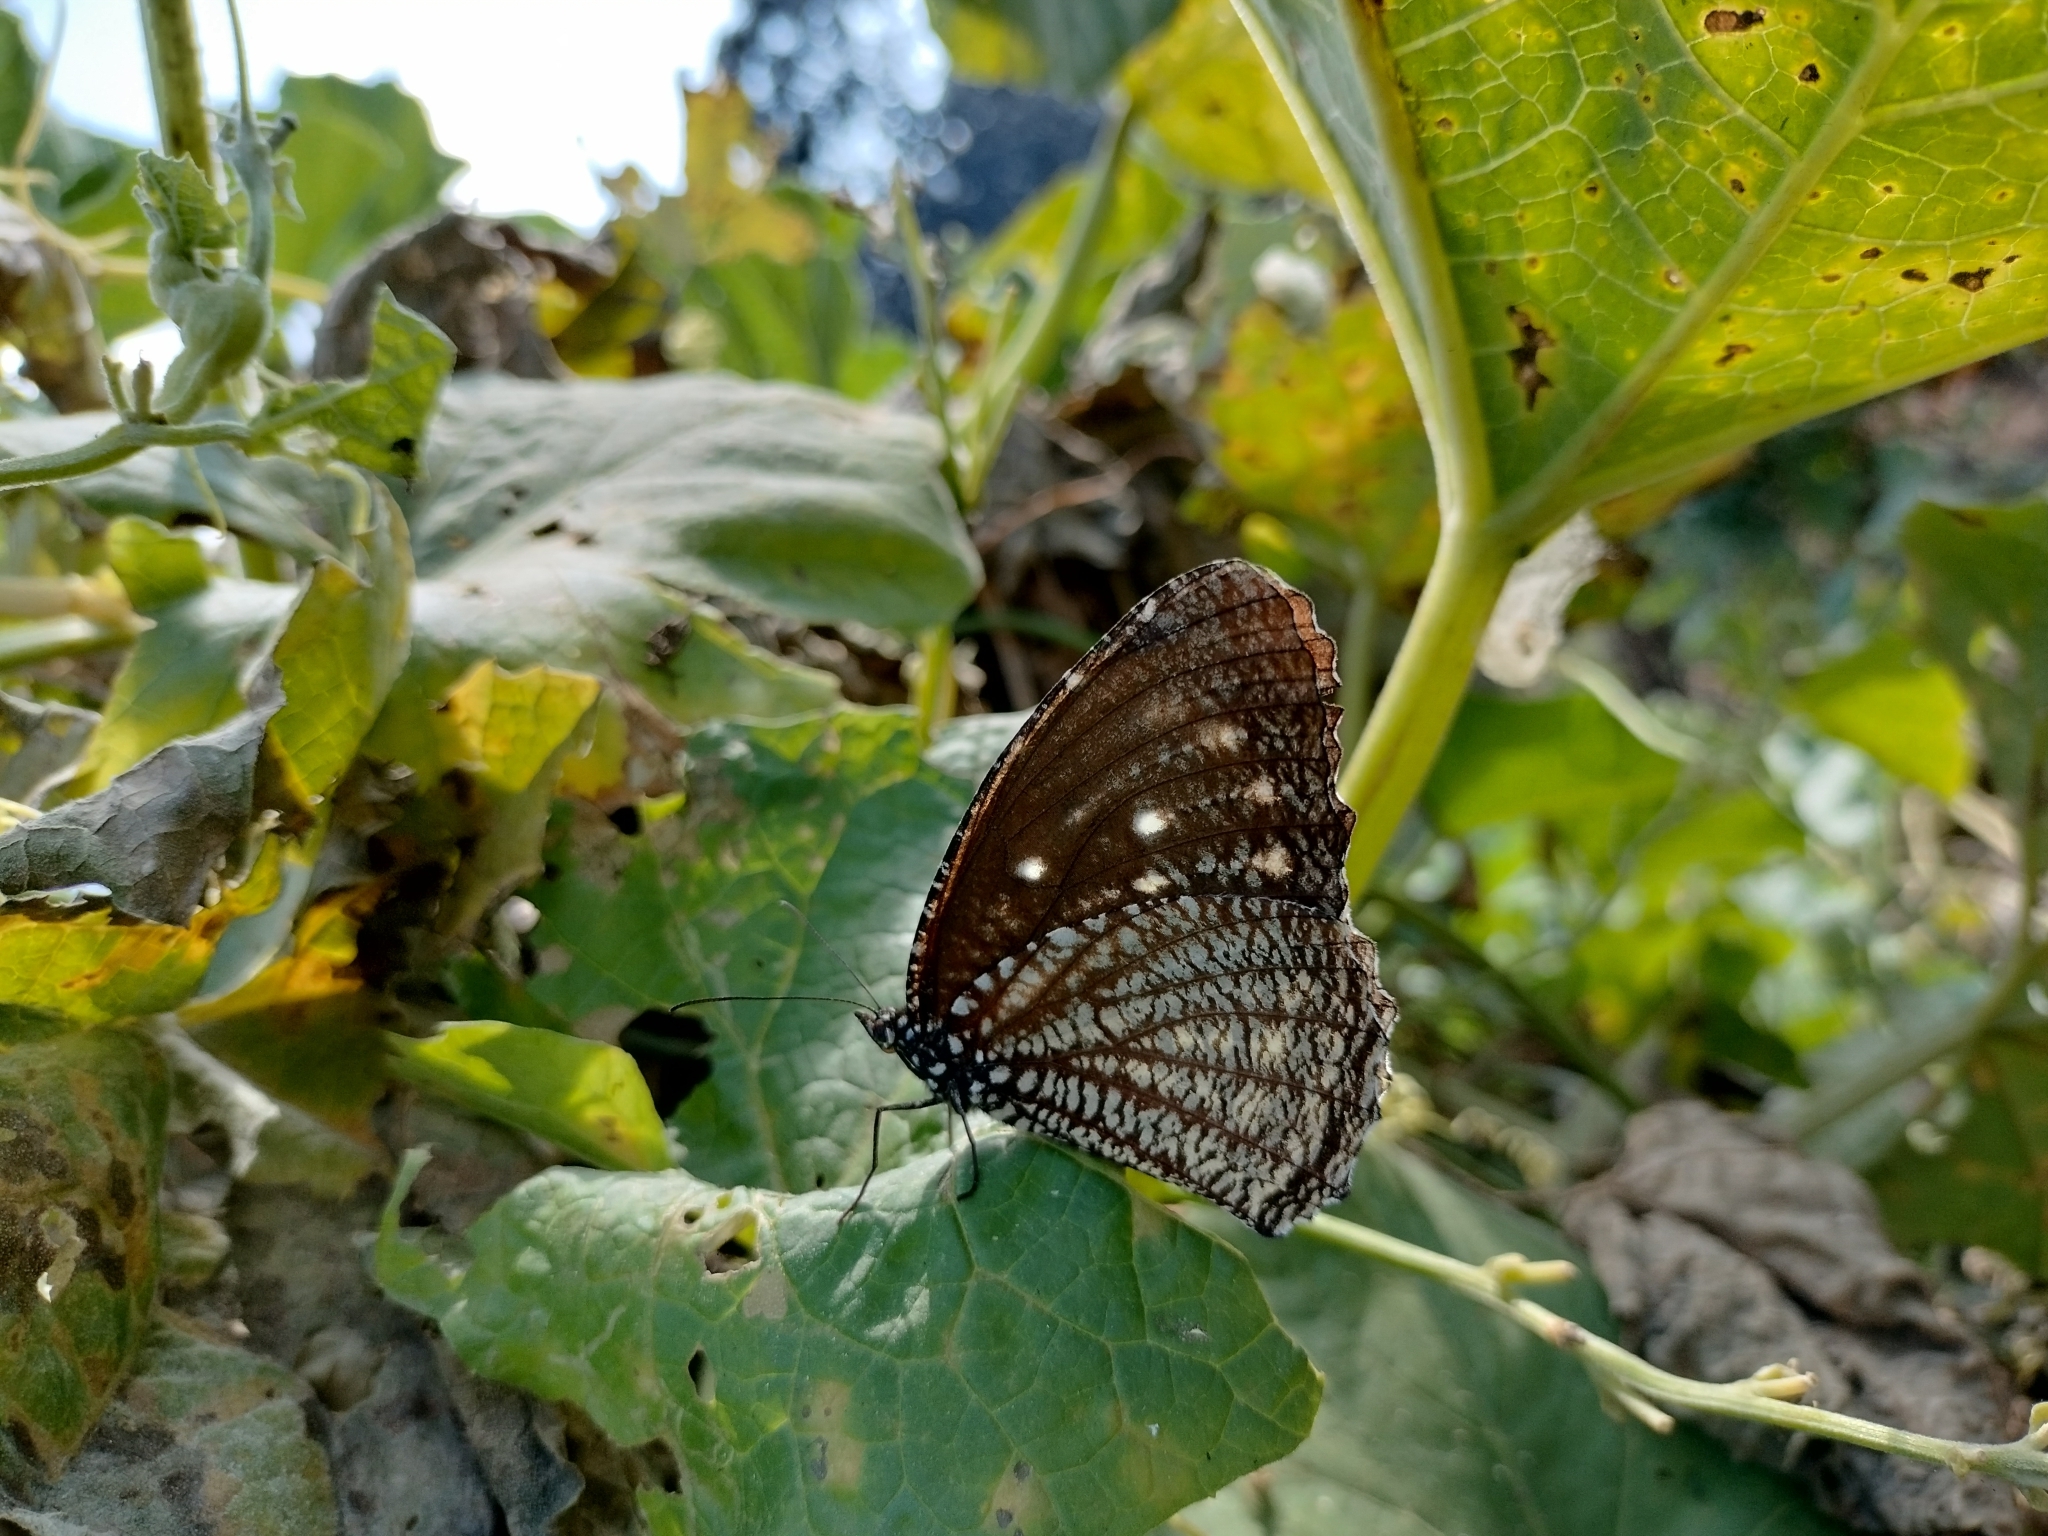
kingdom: Animalia
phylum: Arthropoda
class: Insecta
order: Lepidoptera
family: Nymphalidae
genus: Elymnias
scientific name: Elymnias malelas
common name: Spotted palmfly
